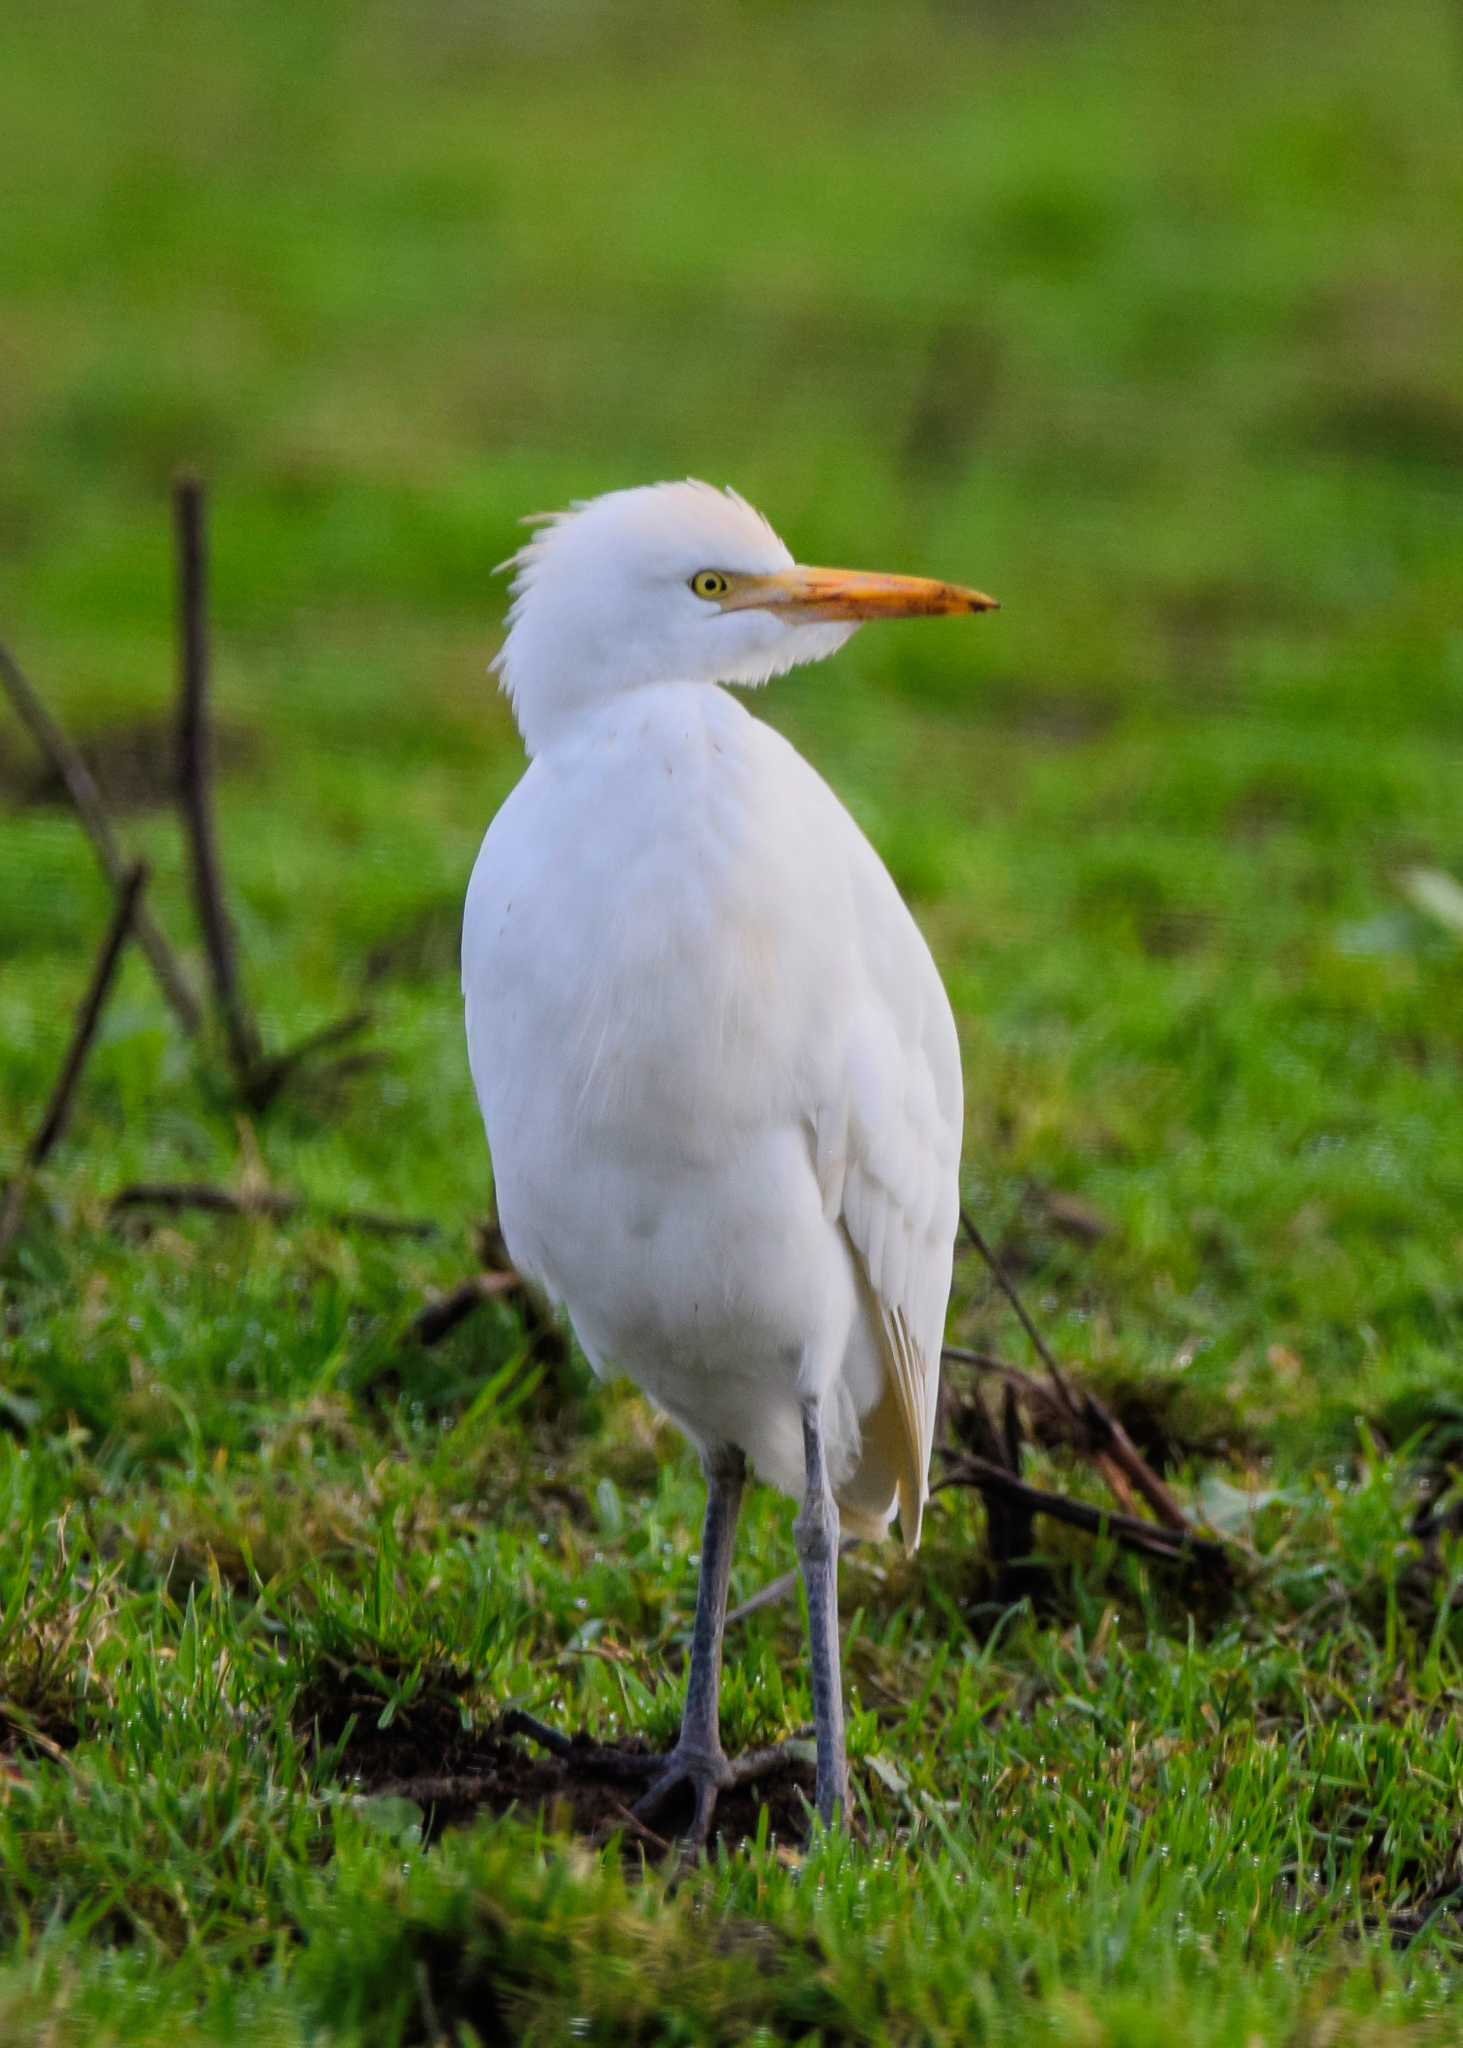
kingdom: Animalia
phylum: Chordata
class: Aves
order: Pelecaniformes
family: Ardeidae
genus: Bubulcus
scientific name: Bubulcus ibis
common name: Cattle egret
